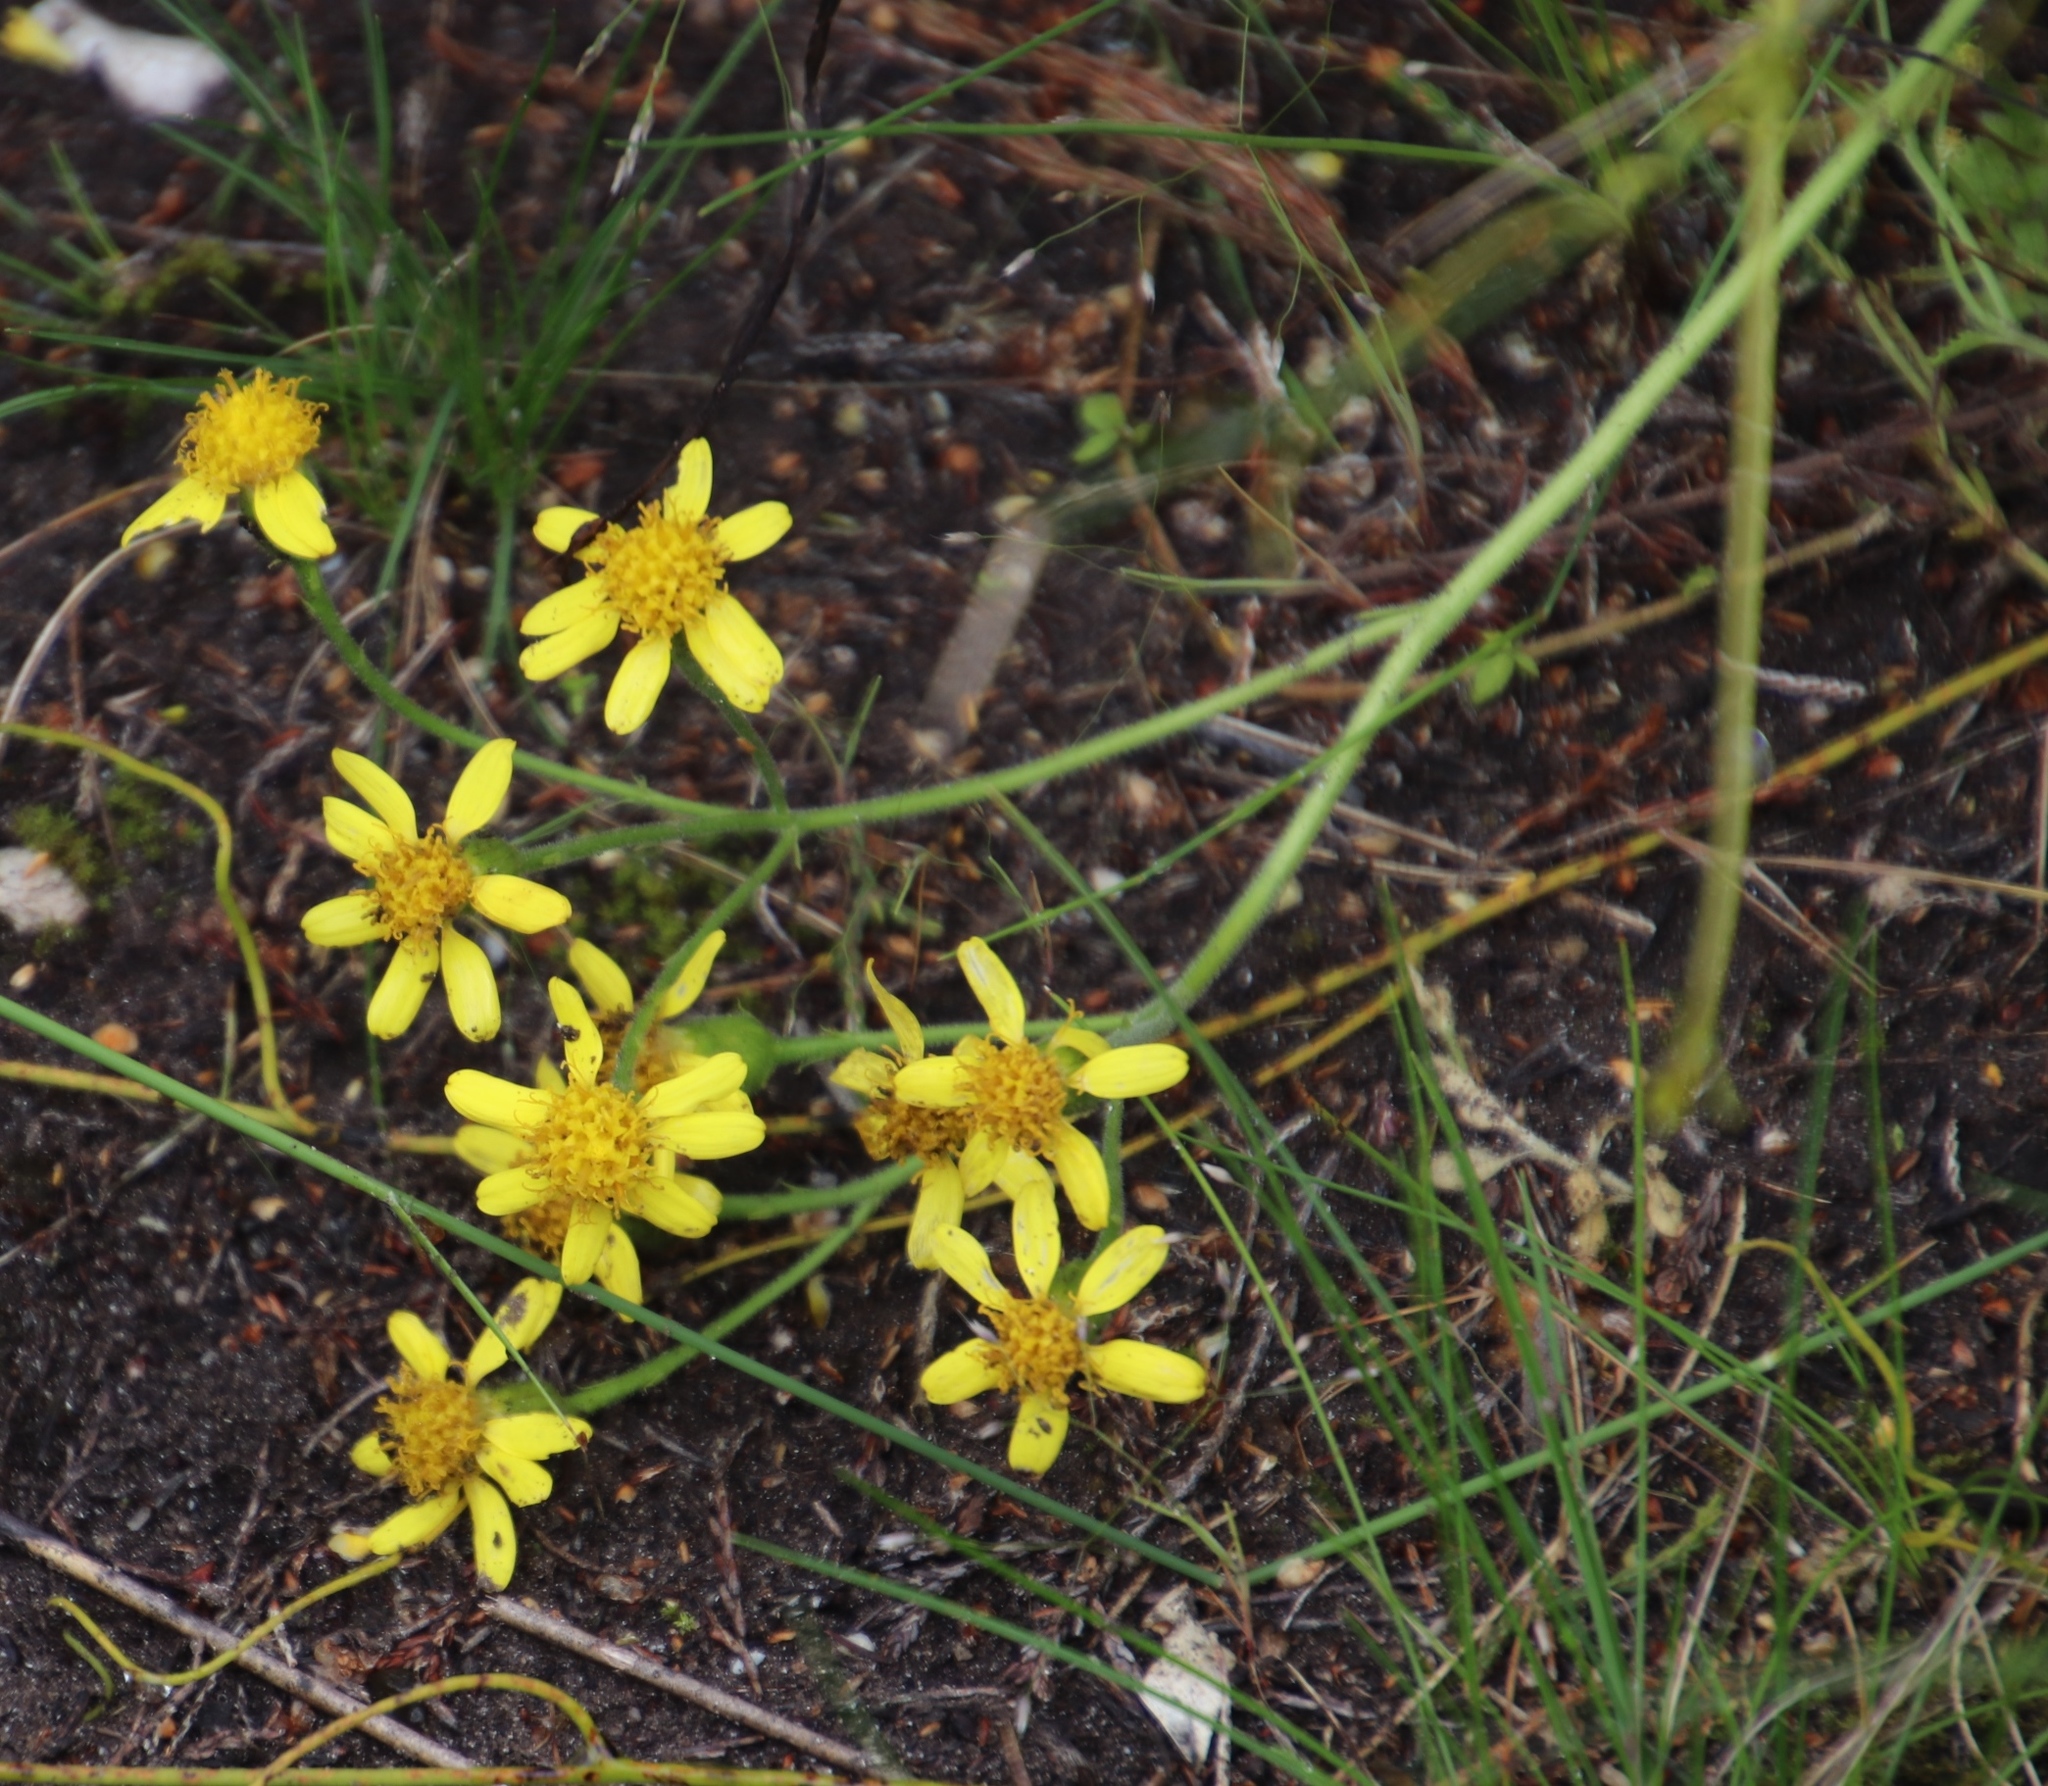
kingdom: Plantae
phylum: Tracheophyta
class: Magnoliopsida
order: Asterales
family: Asteraceae
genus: Cineraria
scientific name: Cineraria geifolia
